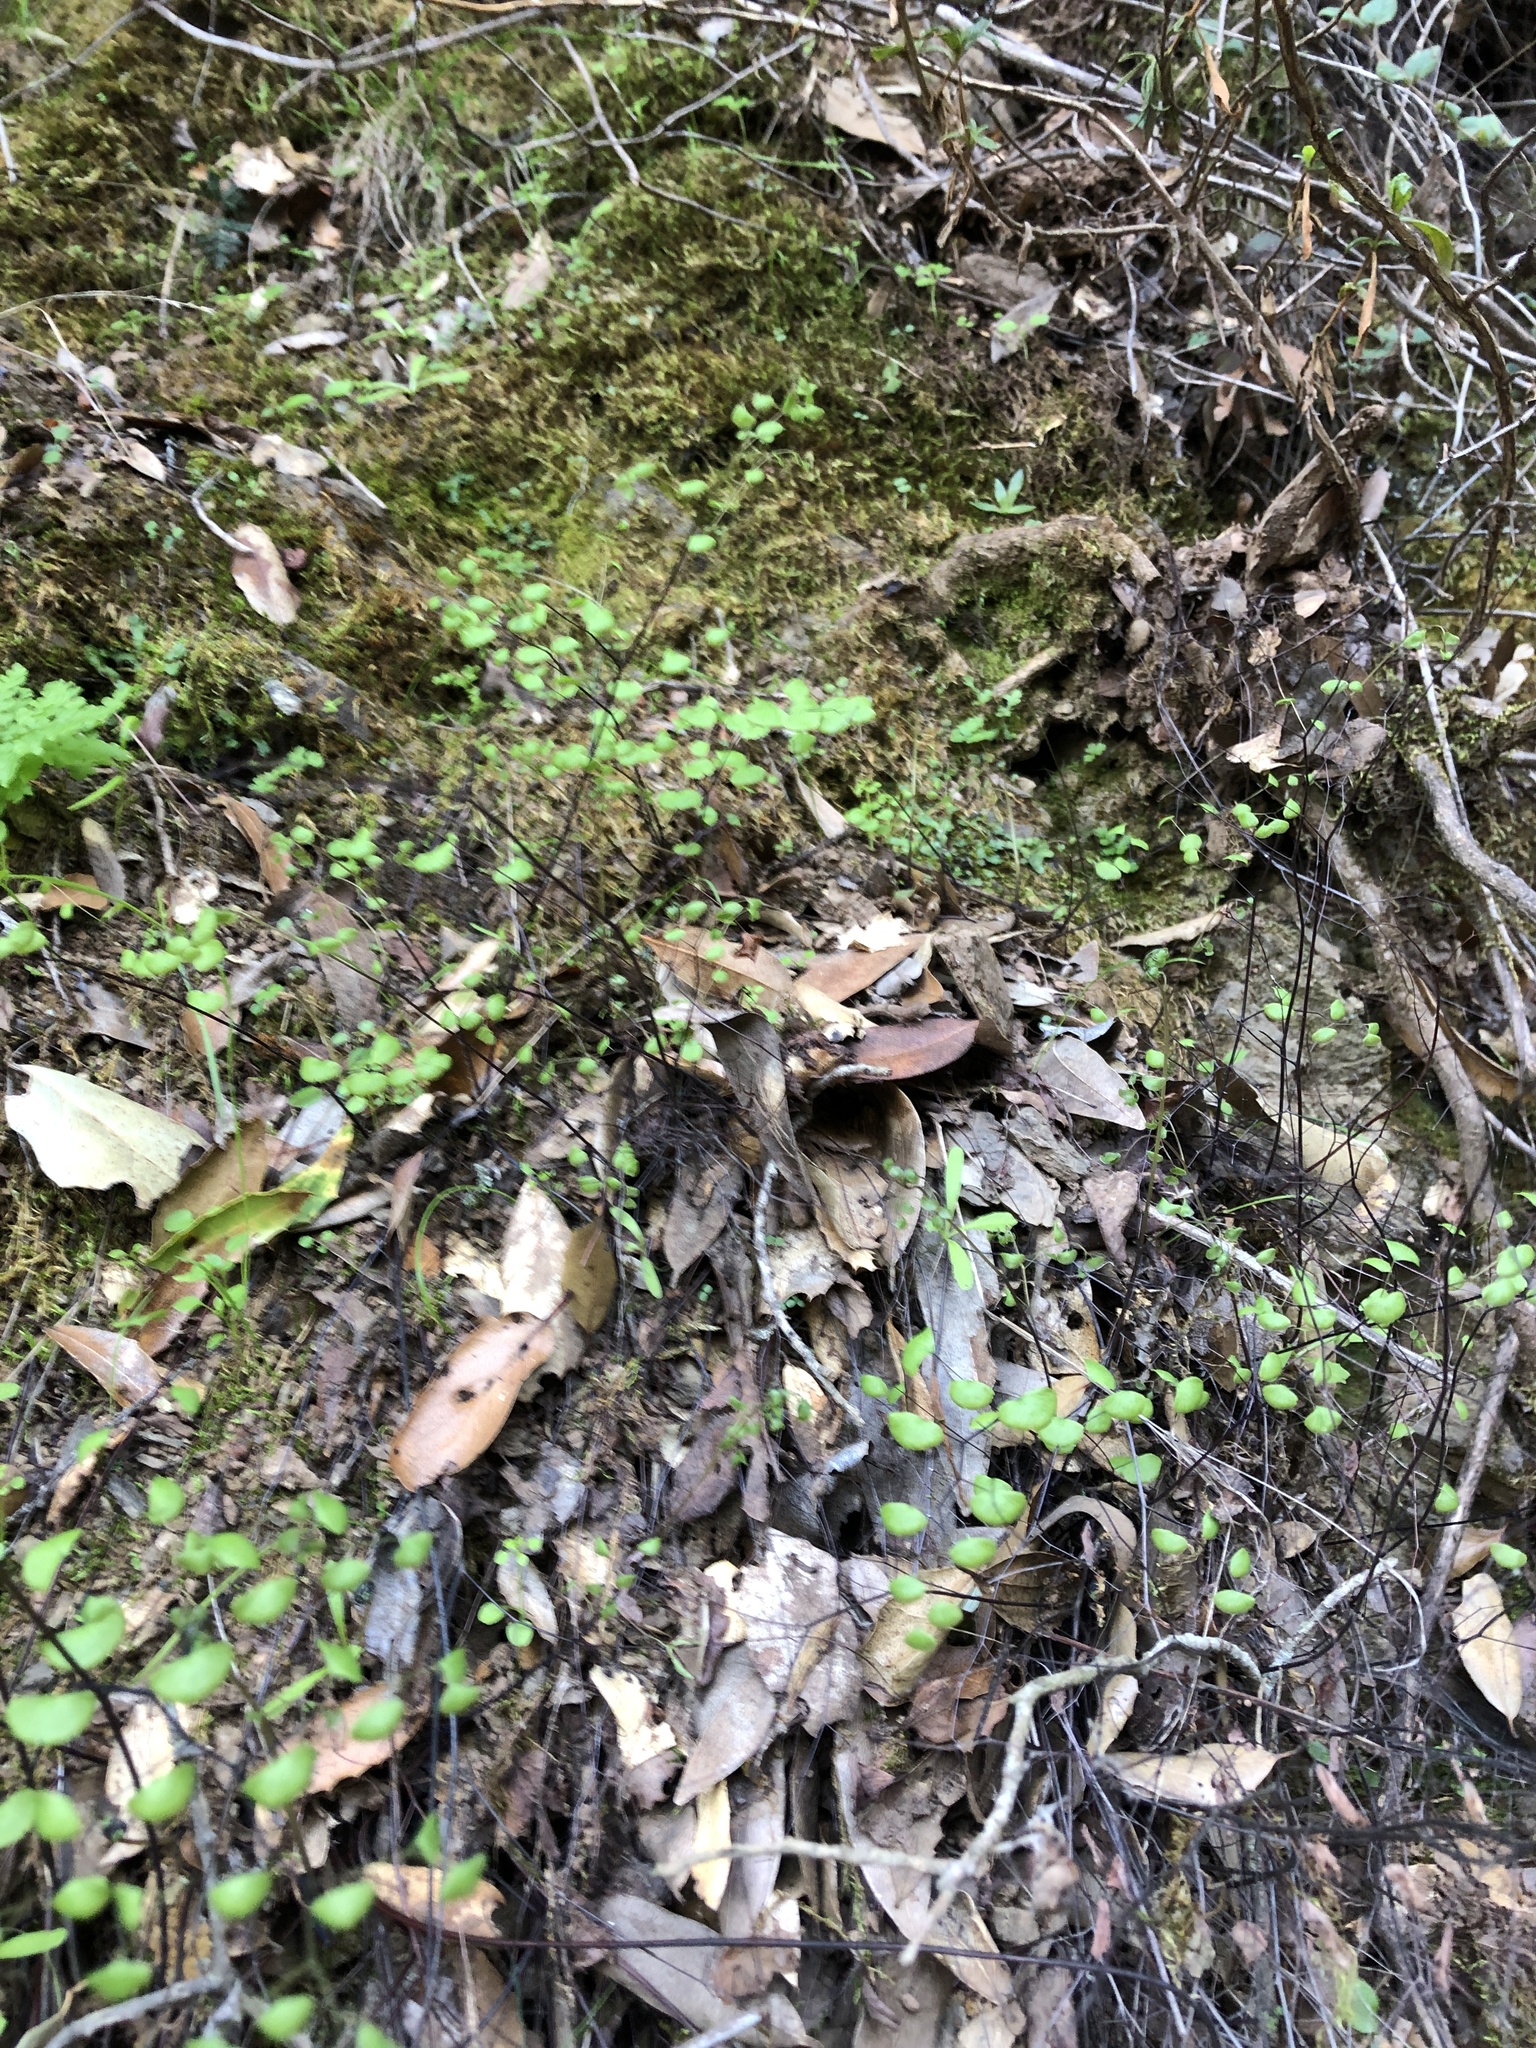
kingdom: Plantae
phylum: Tracheophyta
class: Polypodiopsida
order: Polypodiales
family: Pteridaceae
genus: Adiantum
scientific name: Adiantum jordanii
